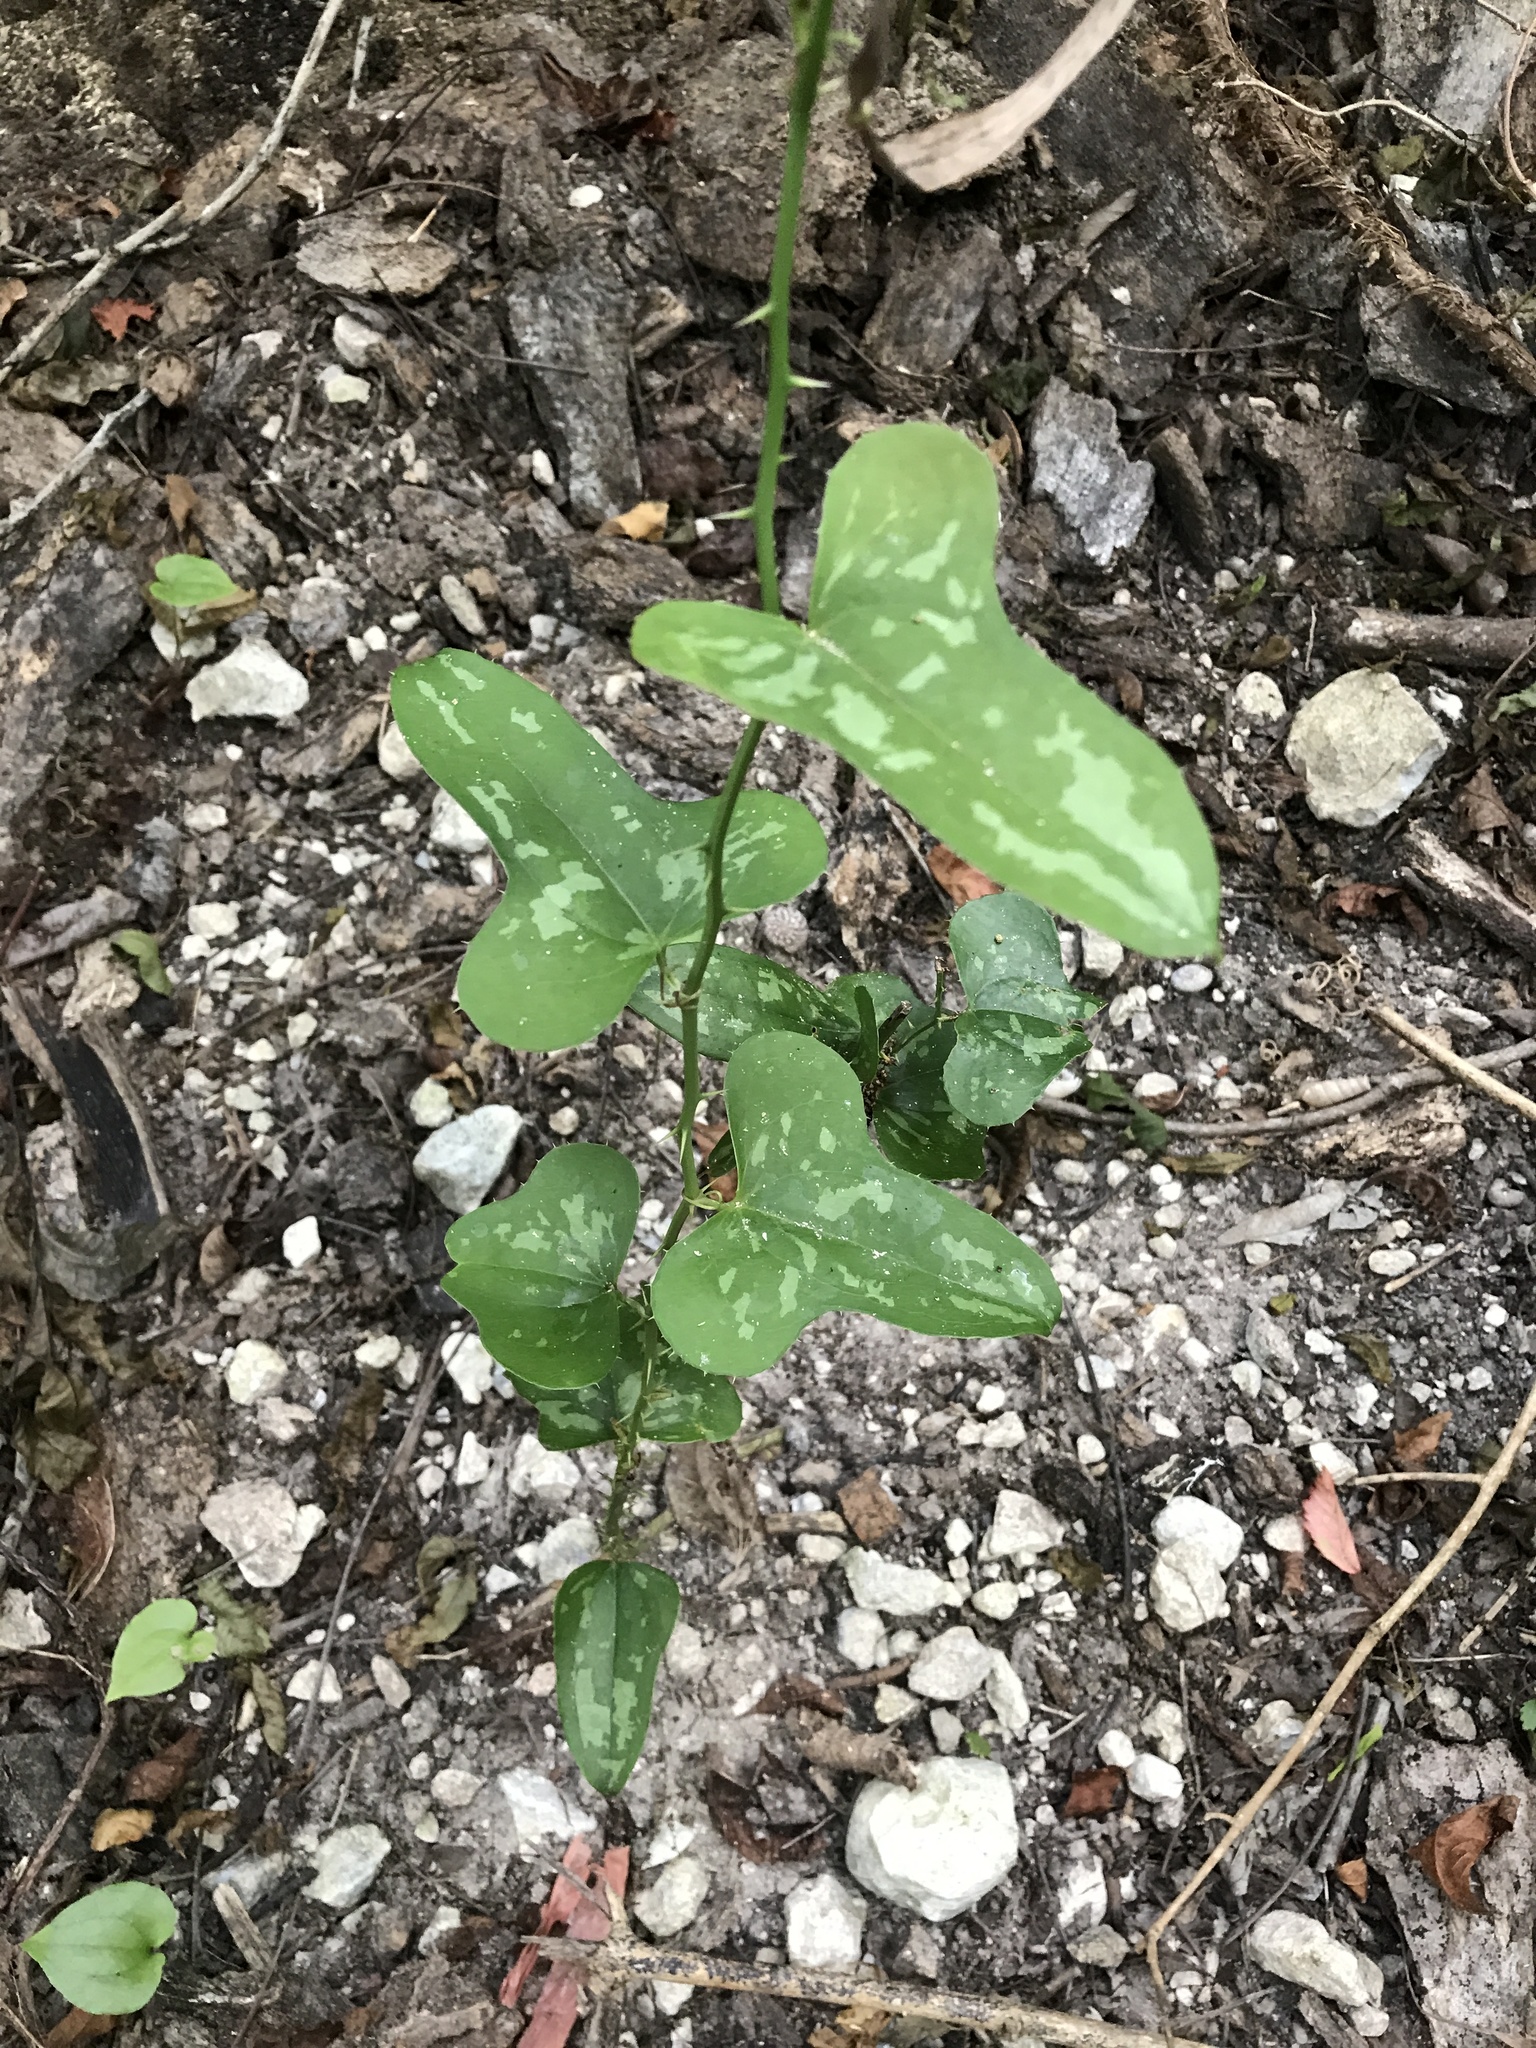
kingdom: Plantae
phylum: Tracheophyta
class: Liliopsida
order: Liliales
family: Smilacaceae
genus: Smilax
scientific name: Smilax bona-nox
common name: Catbrier
